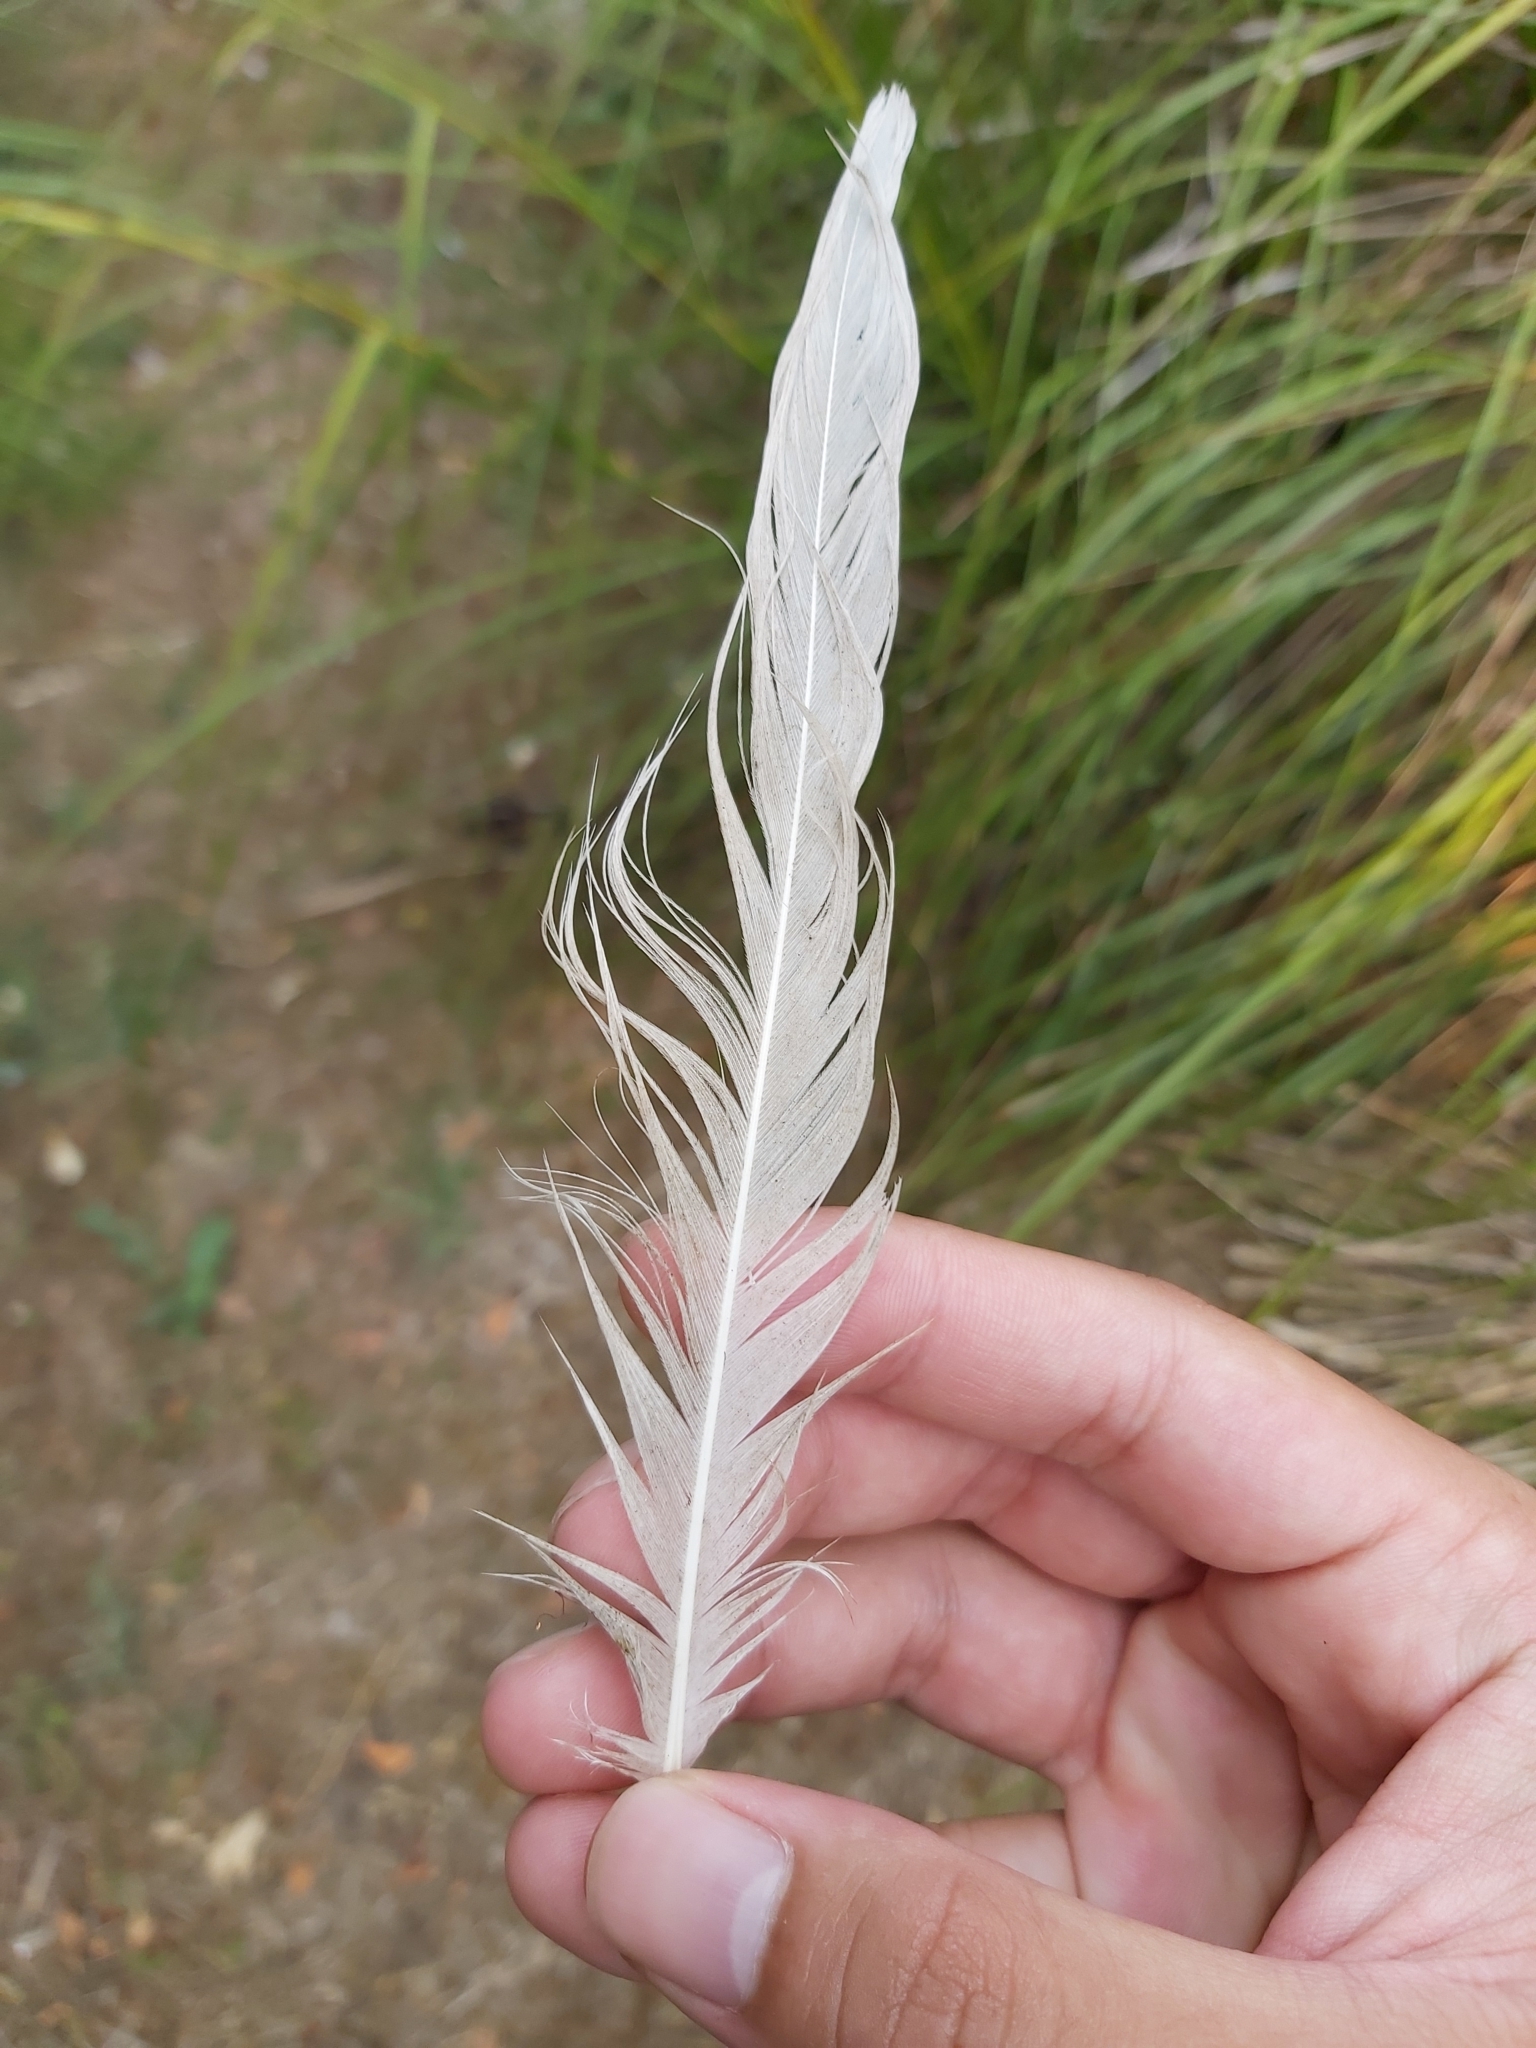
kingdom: Animalia
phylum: Chordata
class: Aves
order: Pelecaniformes
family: Threskiornithidae
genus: Threskiornis
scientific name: Threskiornis molucca
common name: Australian white ibis
